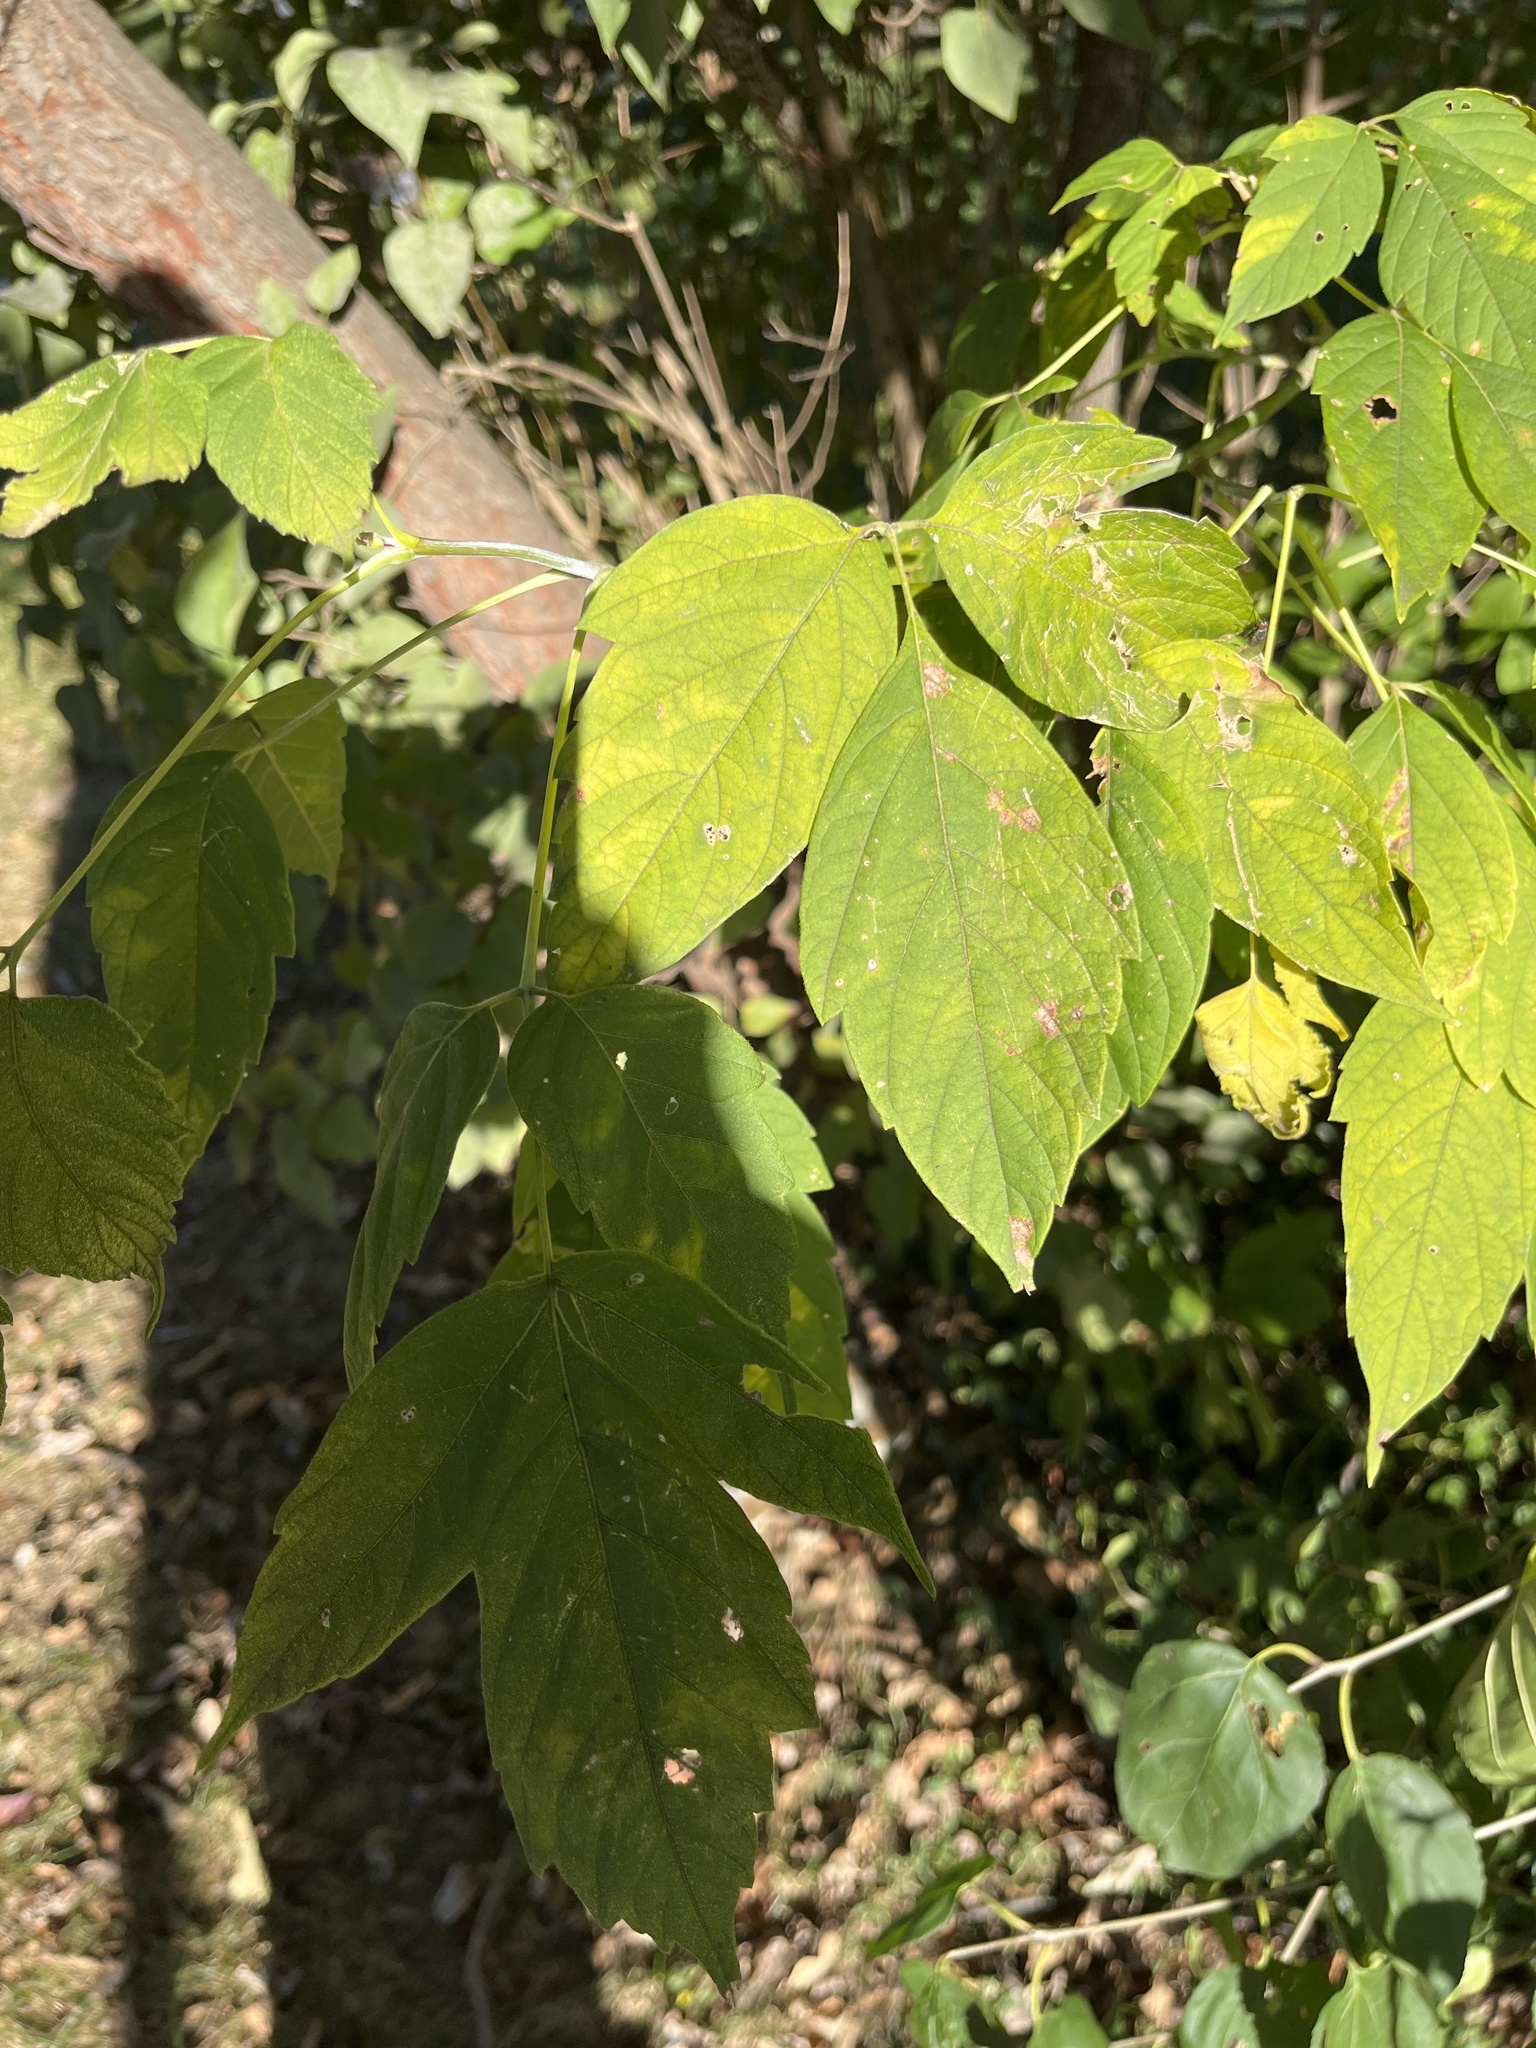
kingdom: Plantae
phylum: Tracheophyta
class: Magnoliopsida
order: Sapindales
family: Sapindaceae
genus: Acer
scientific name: Acer negundo
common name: Ashleaf maple
